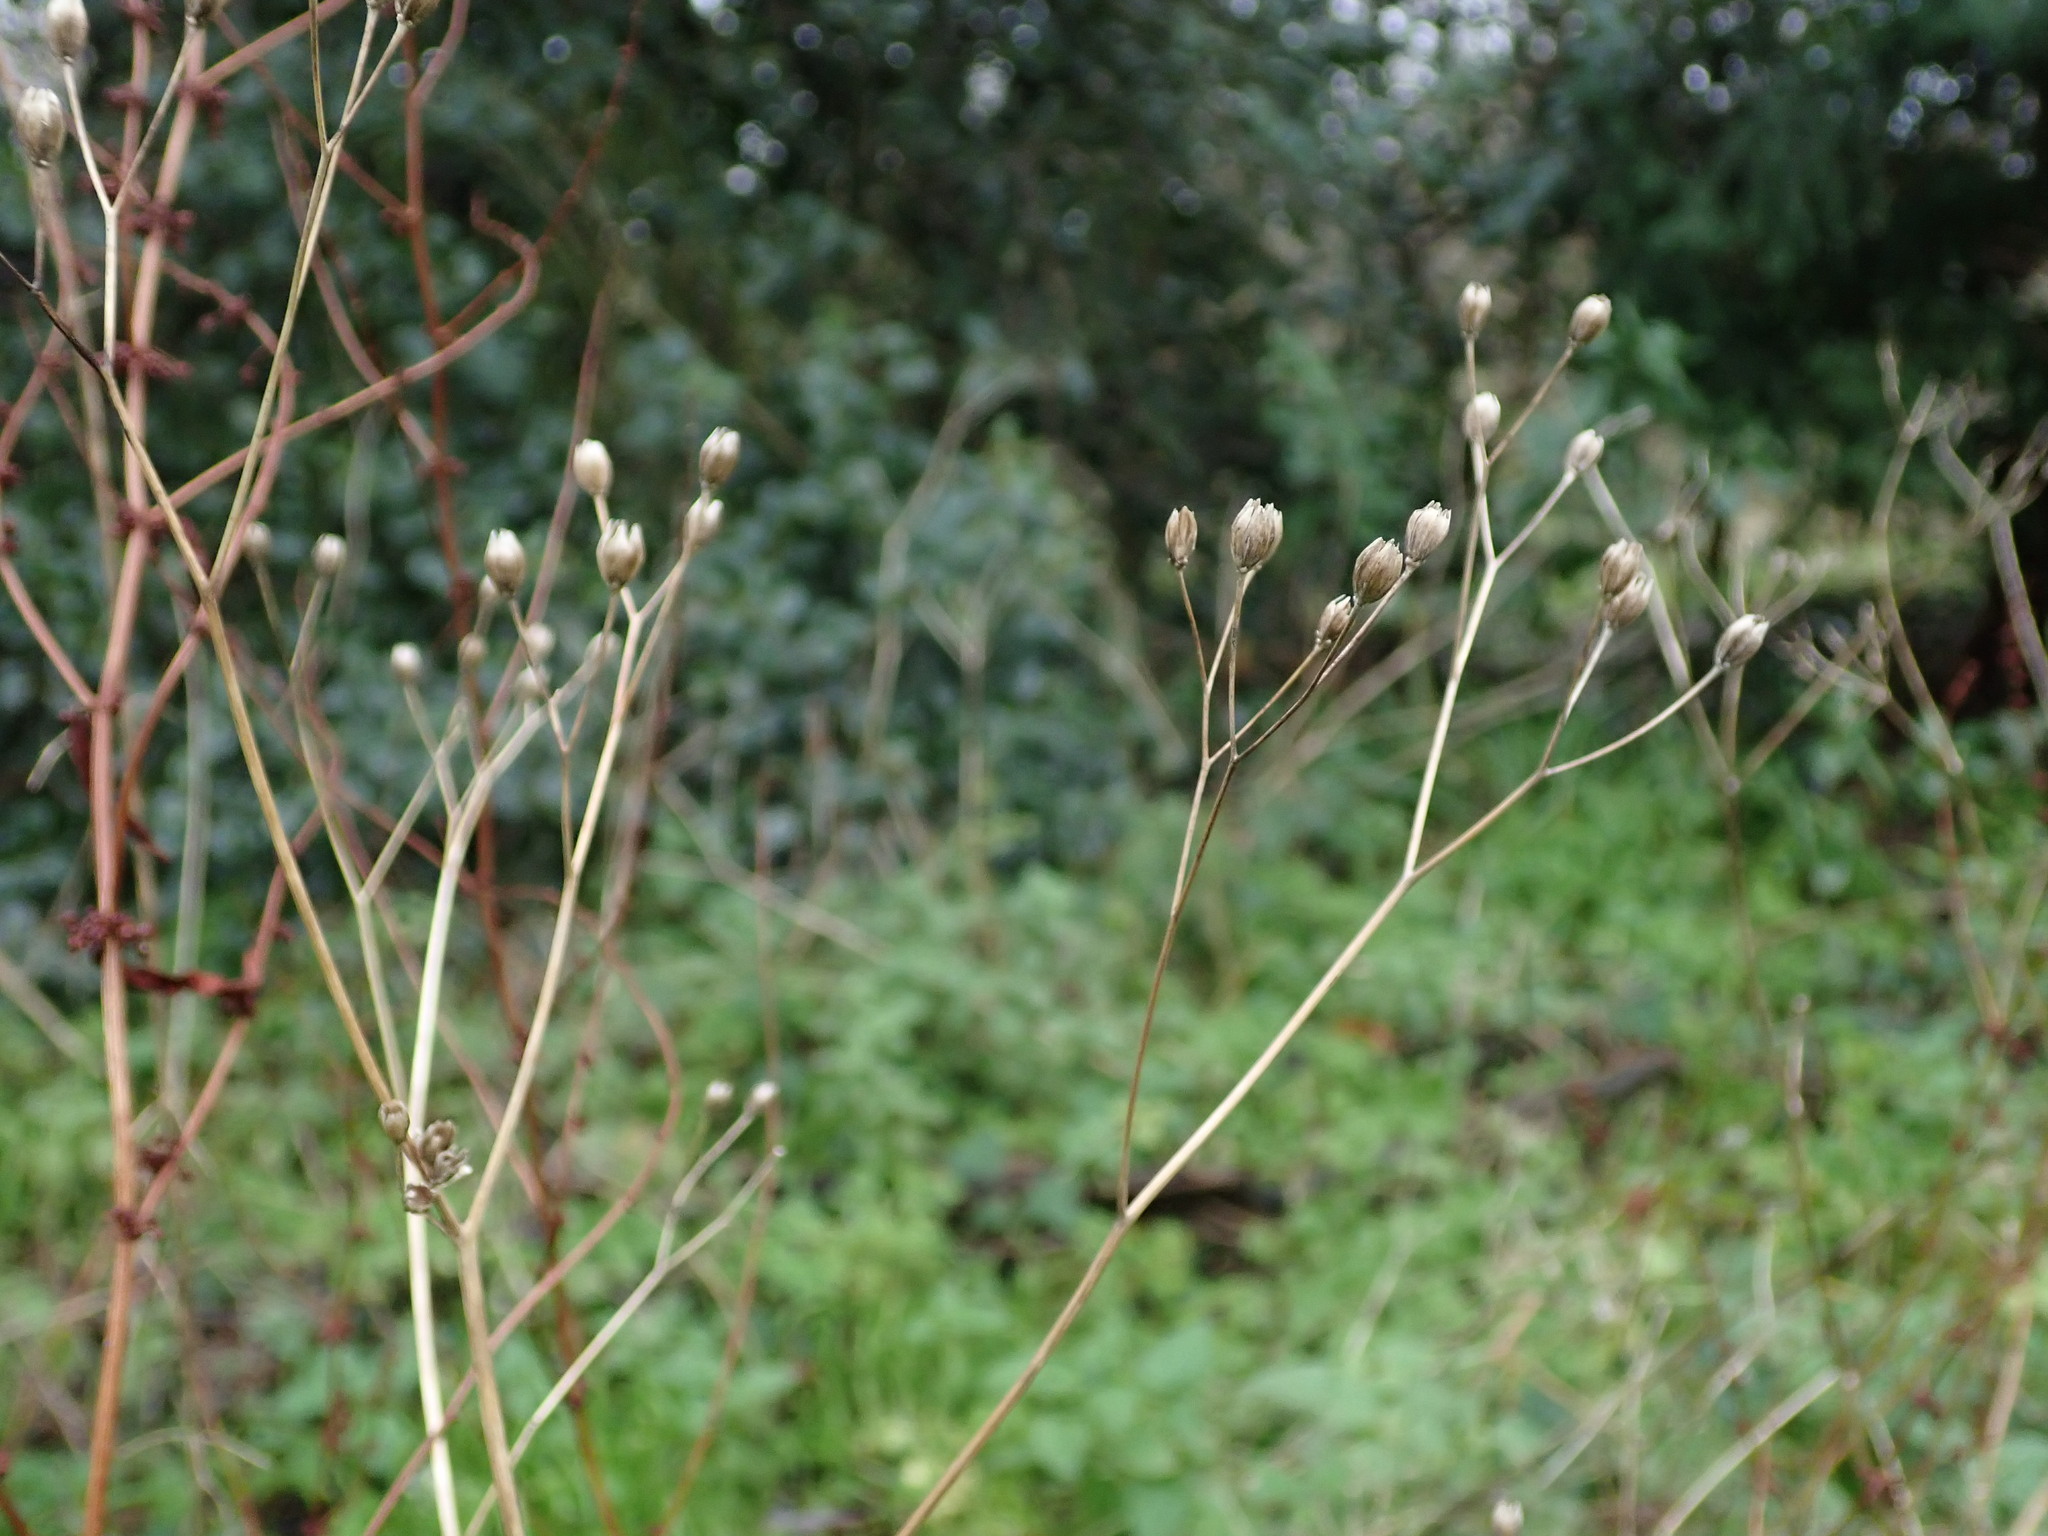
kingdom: Plantae
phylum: Tracheophyta
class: Magnoliopsida
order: Asterales
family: Asteraceae
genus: Lapsana
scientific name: Lapsana communis
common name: Nipplewort
